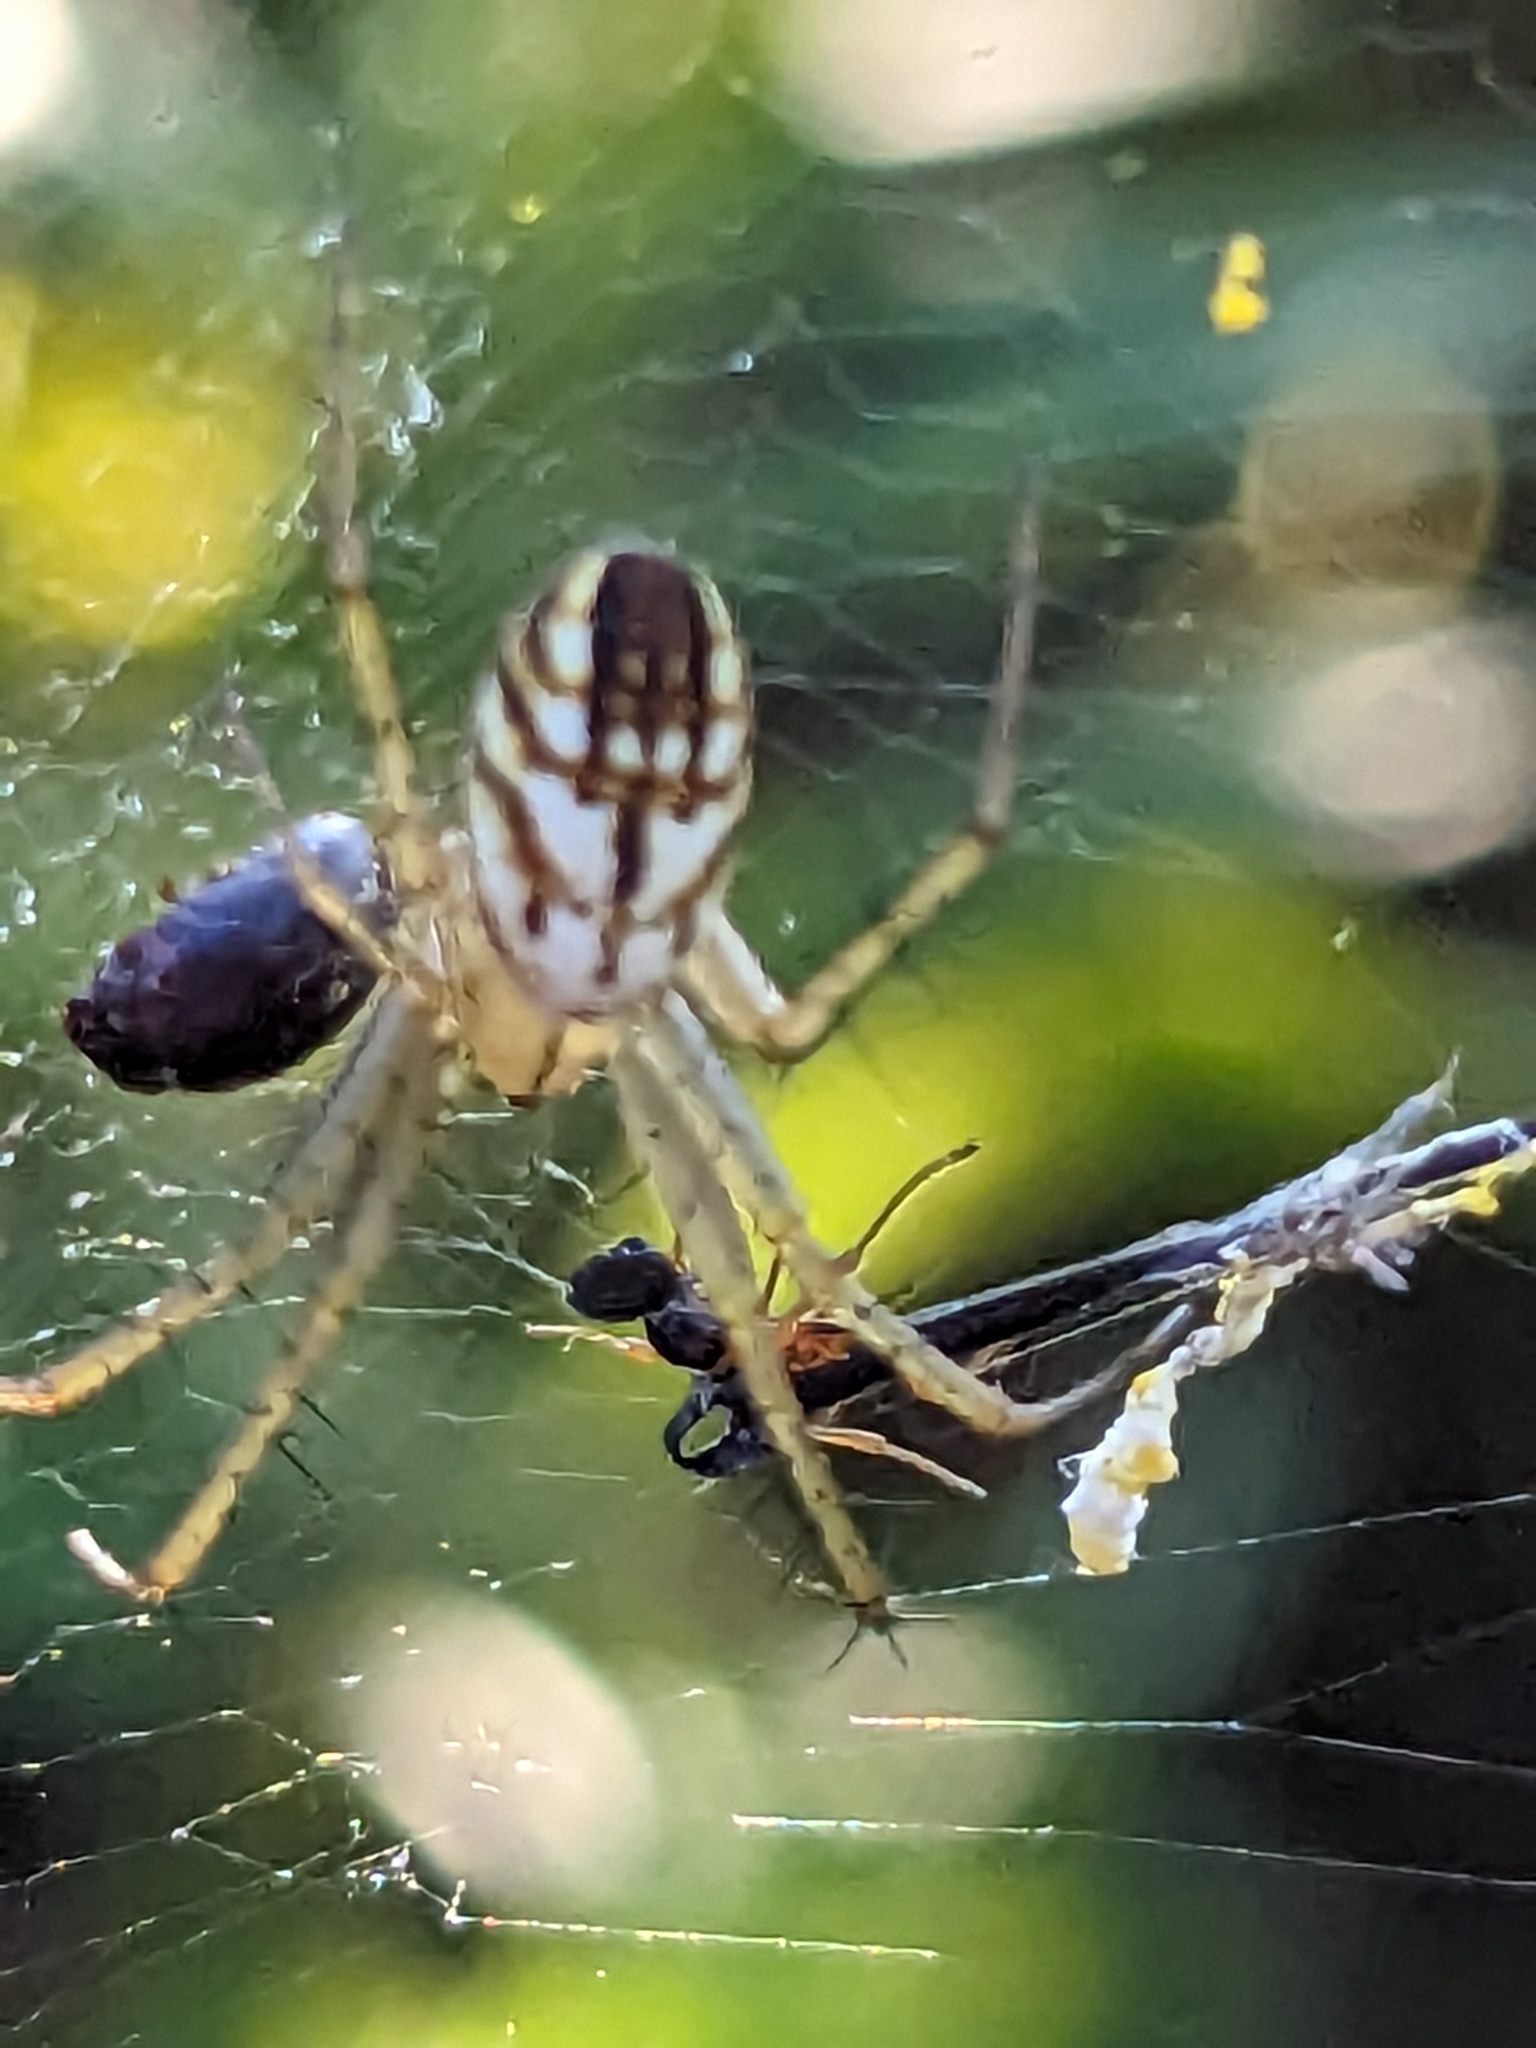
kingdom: Animalia
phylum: Arthropoda
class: Arachnida
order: Araneae
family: Araneidae
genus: Mangora
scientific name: Mangora gibberosa
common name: Lined orbweaver
